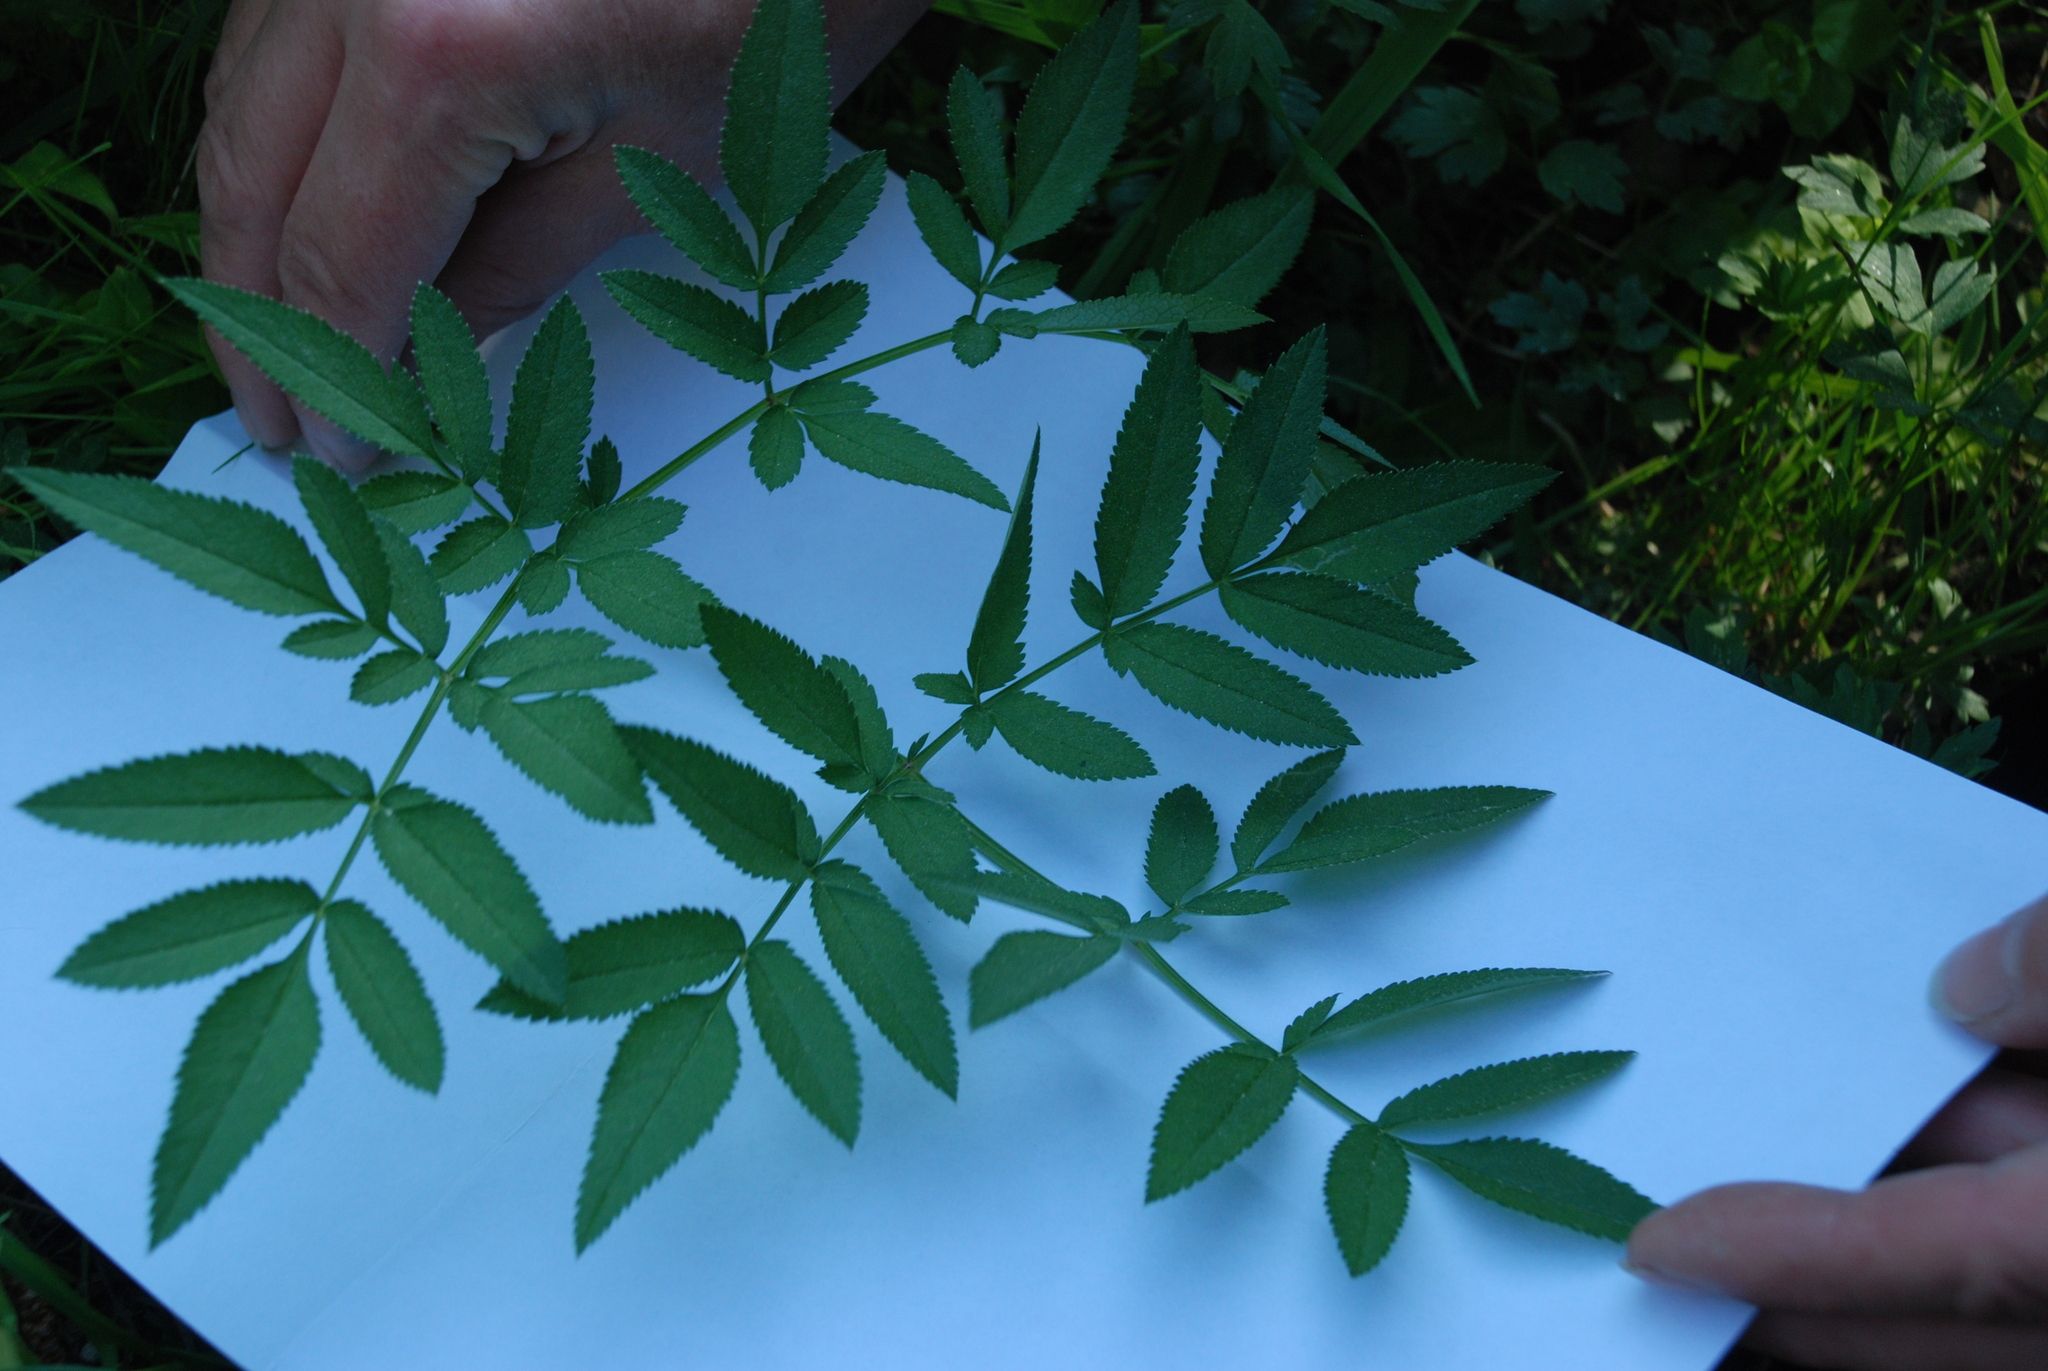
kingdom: Plantae
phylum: Tracheophyta
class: Magnoliopsida
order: Apiales
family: Apiaceae
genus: Angelica
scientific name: Angelica sylvestris
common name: Wild angelica
